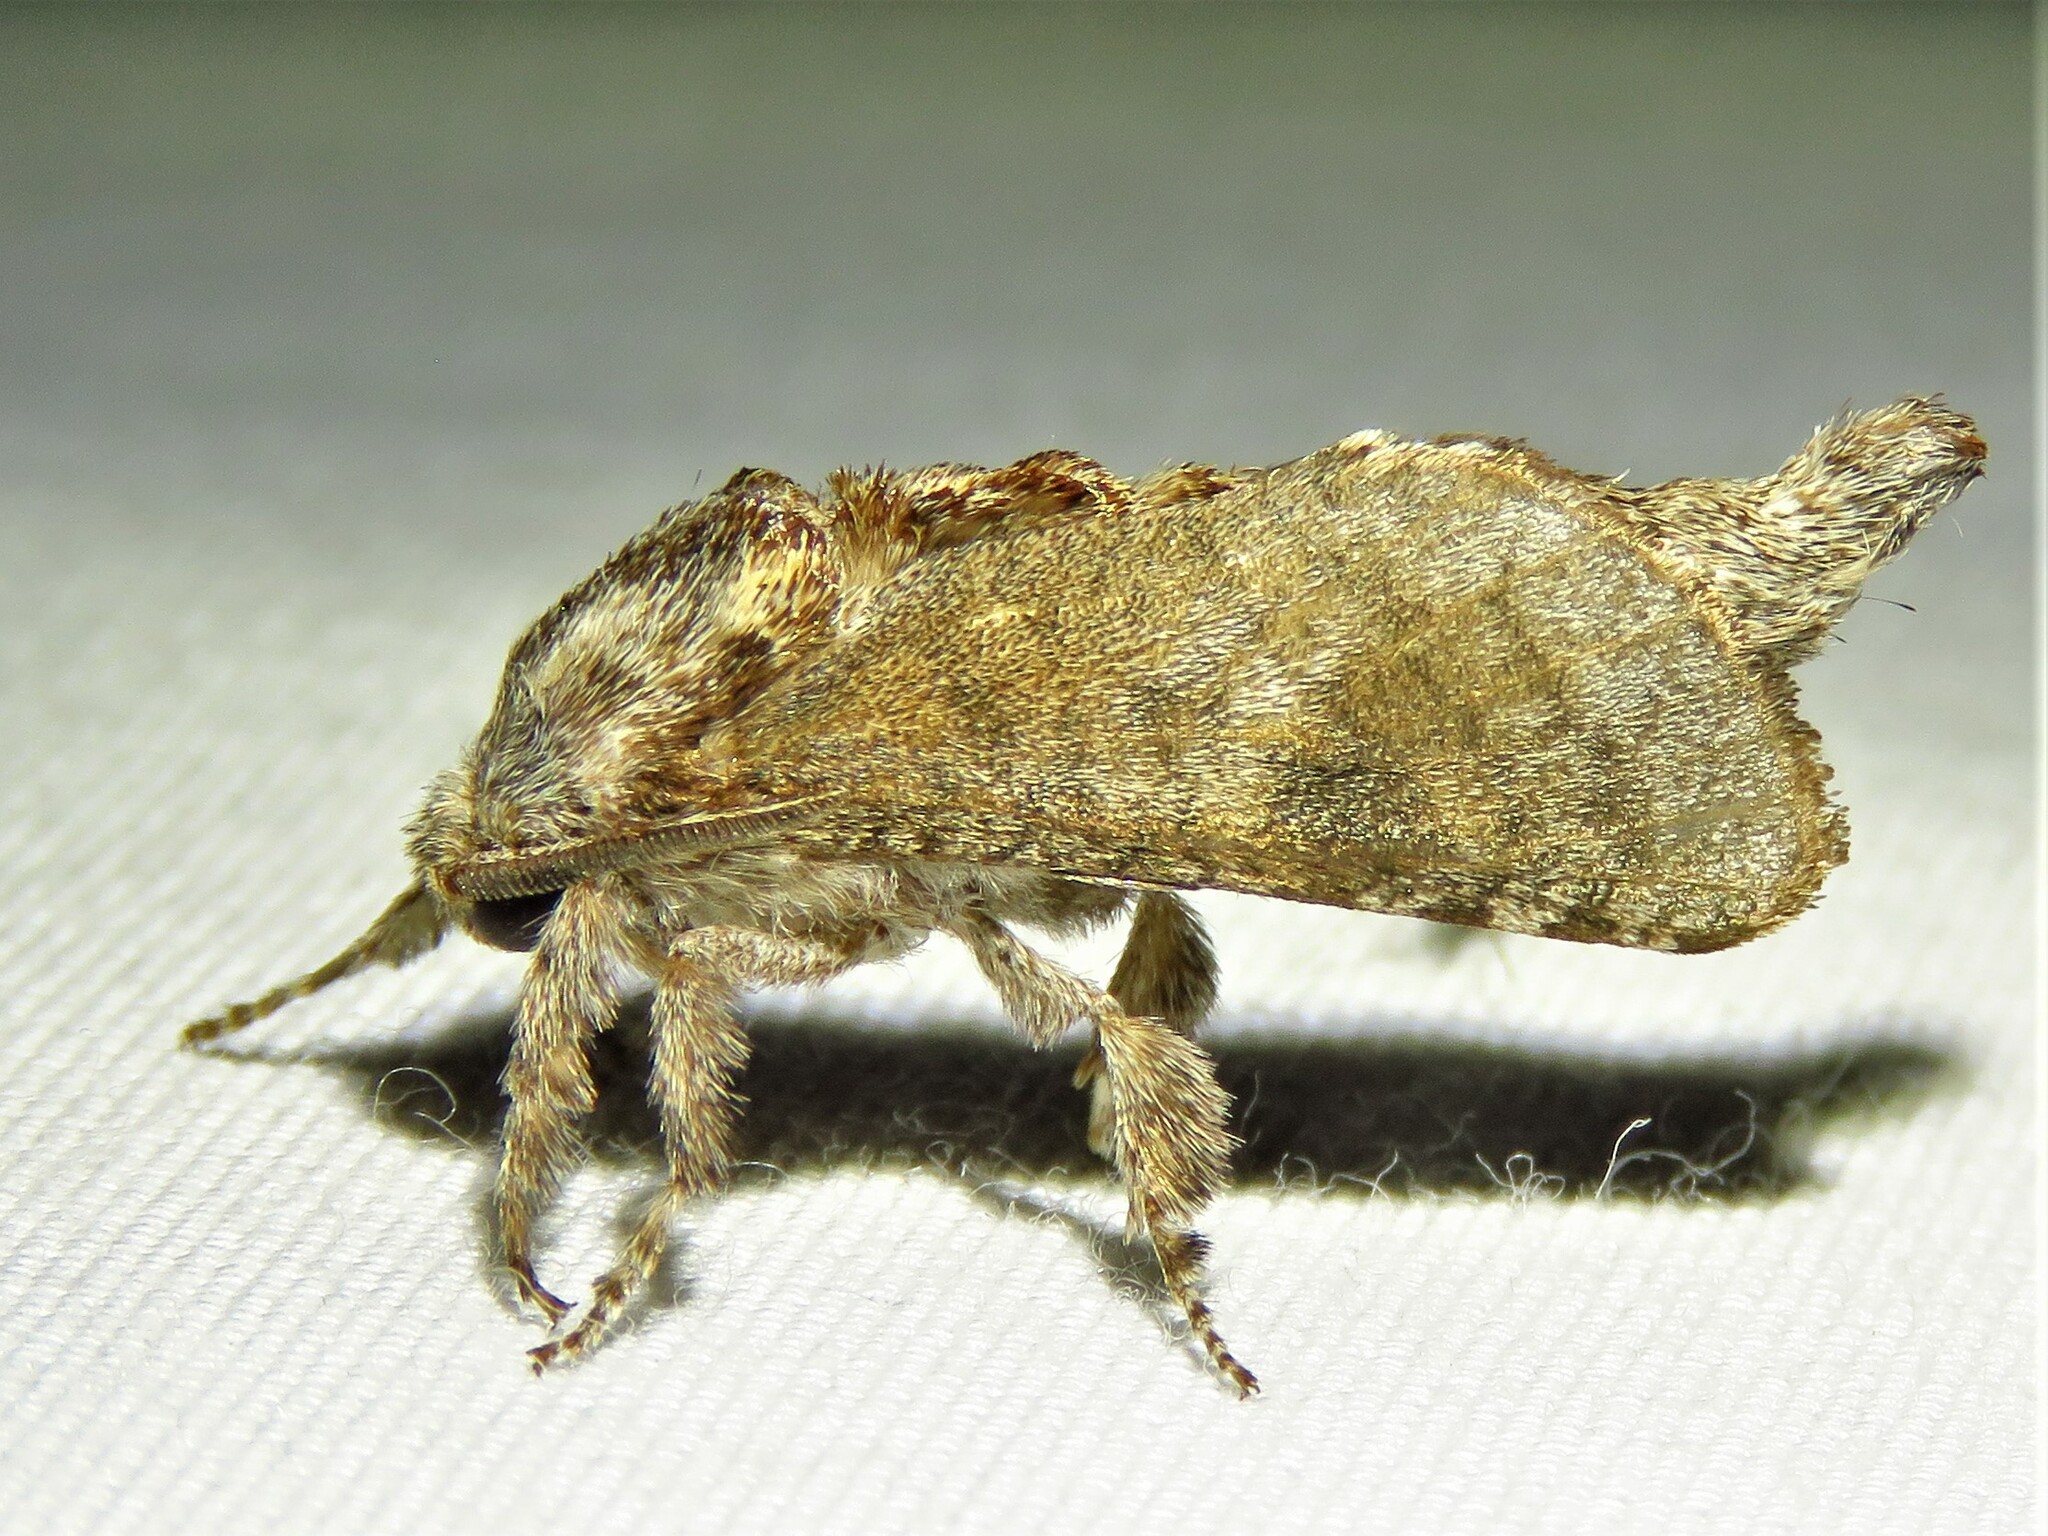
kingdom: Animalia
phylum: Arthropoda
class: Insecta
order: Lepidoptera
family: Cossidae
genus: Givira
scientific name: Givira arbeloides
